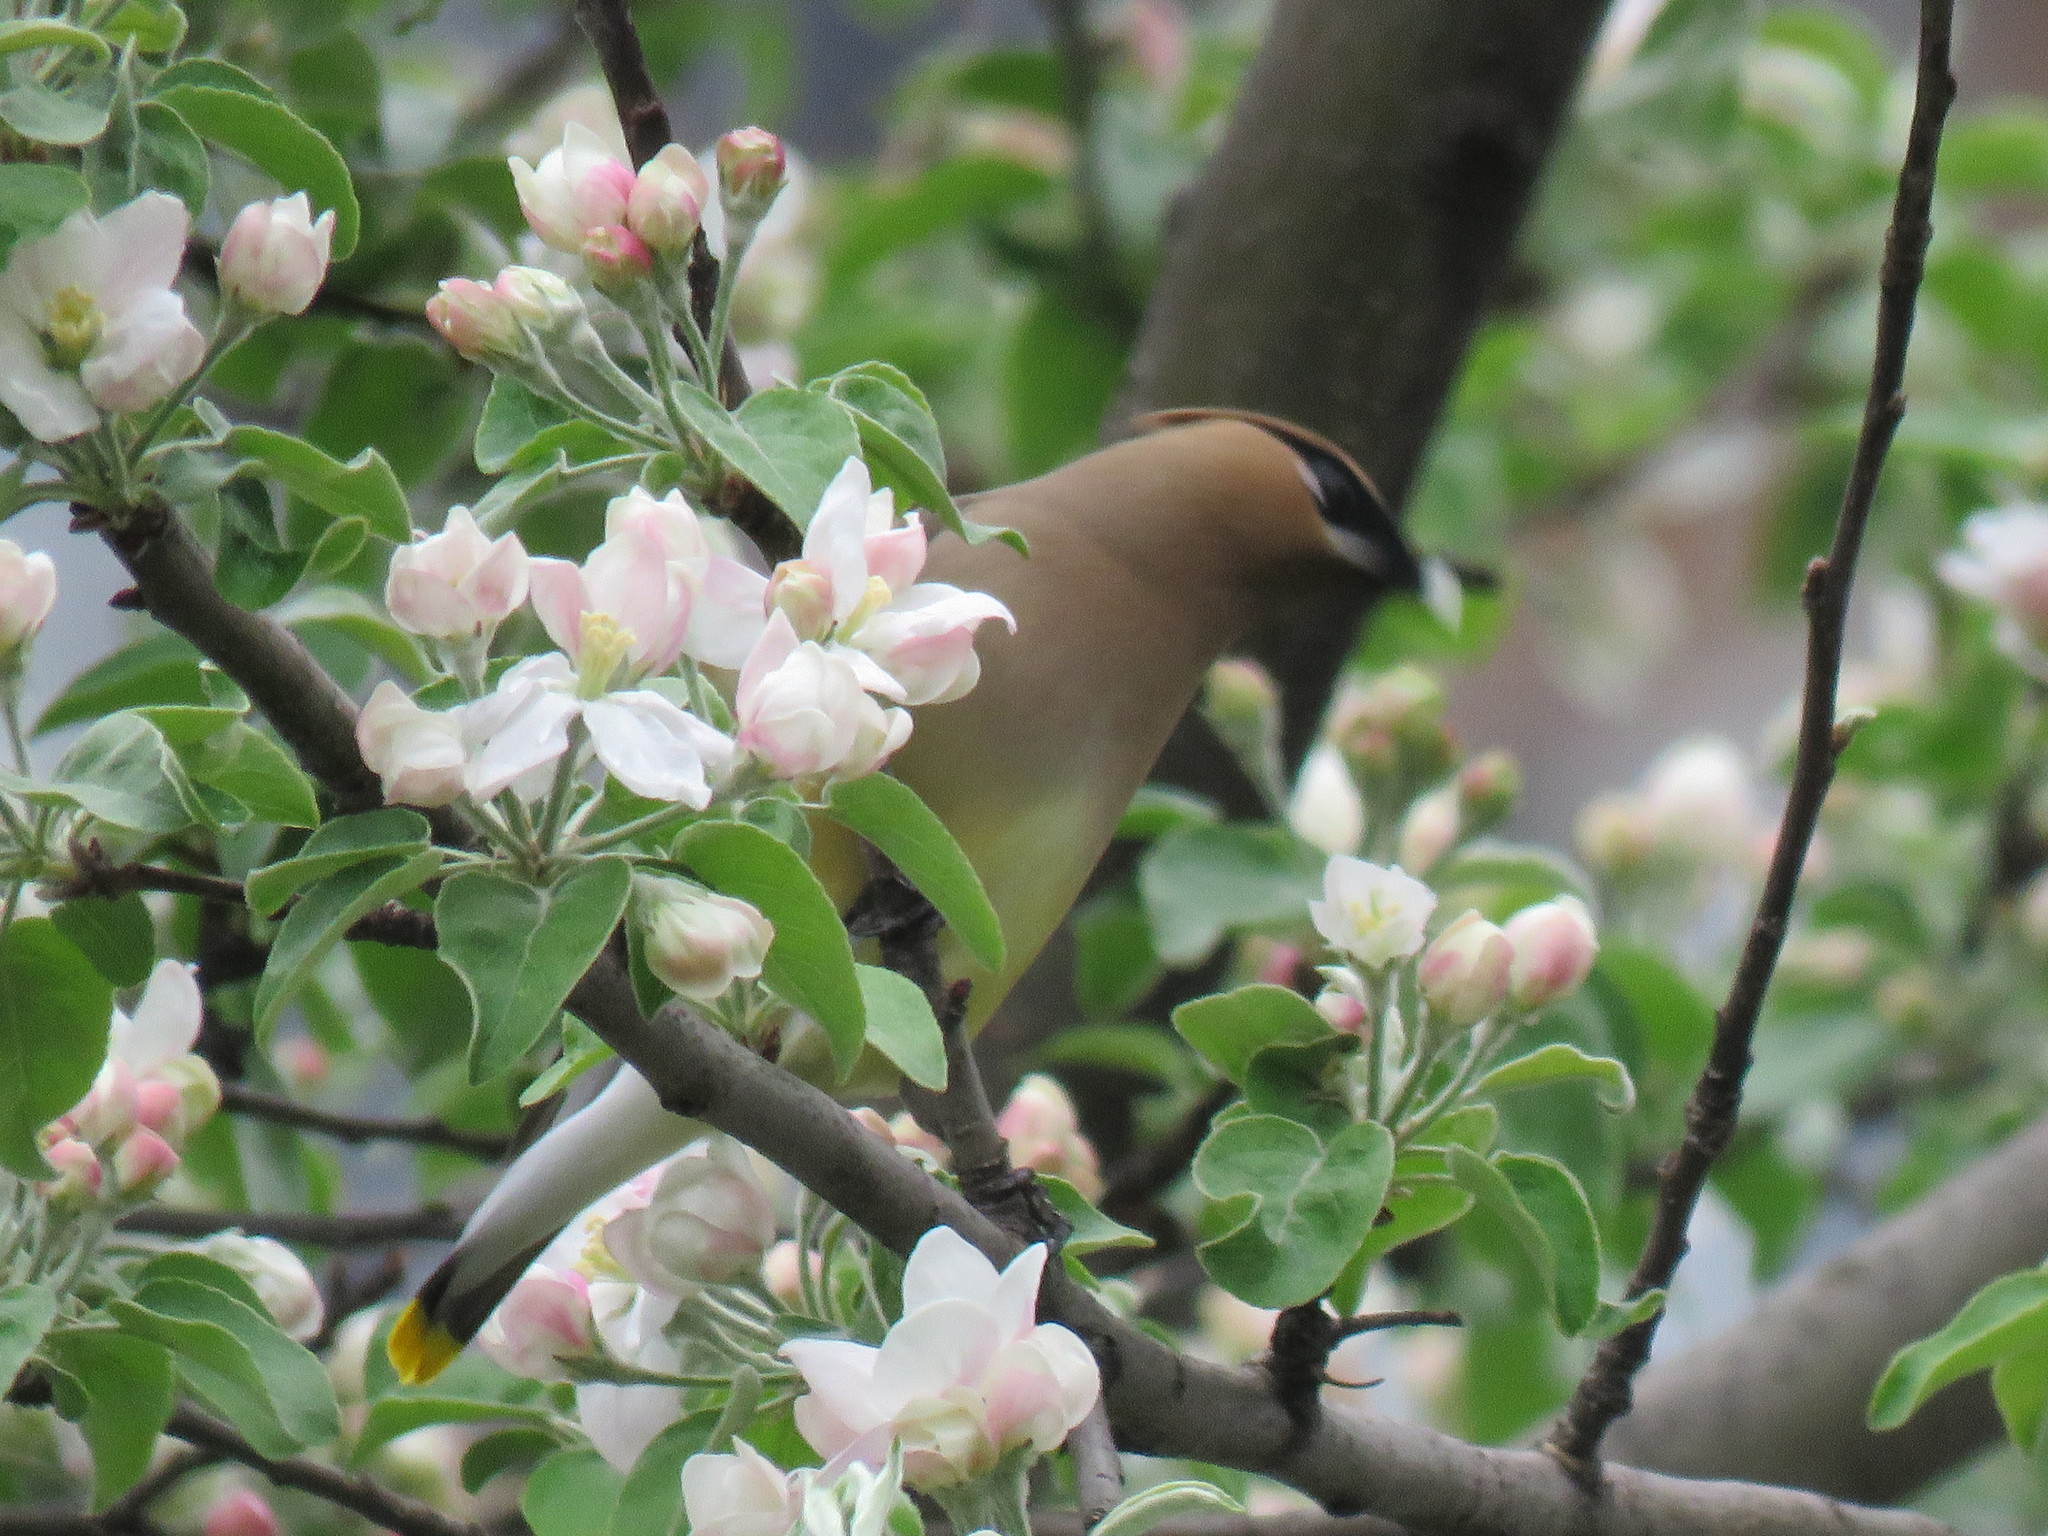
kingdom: Animalia
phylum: Chordata
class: Aves
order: Passeriformes
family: Bombycillidae
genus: Bombycilla
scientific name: Bombycilla cedrorum
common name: Cedar waxwing
